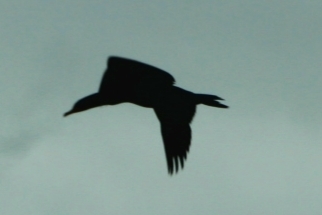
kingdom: Animalia
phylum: Chordata
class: Aves
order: Suliformes
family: Phalacrocoracidae
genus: Phalacrocorax
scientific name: Phalacrocorax auritus
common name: Double-crested cormorant
